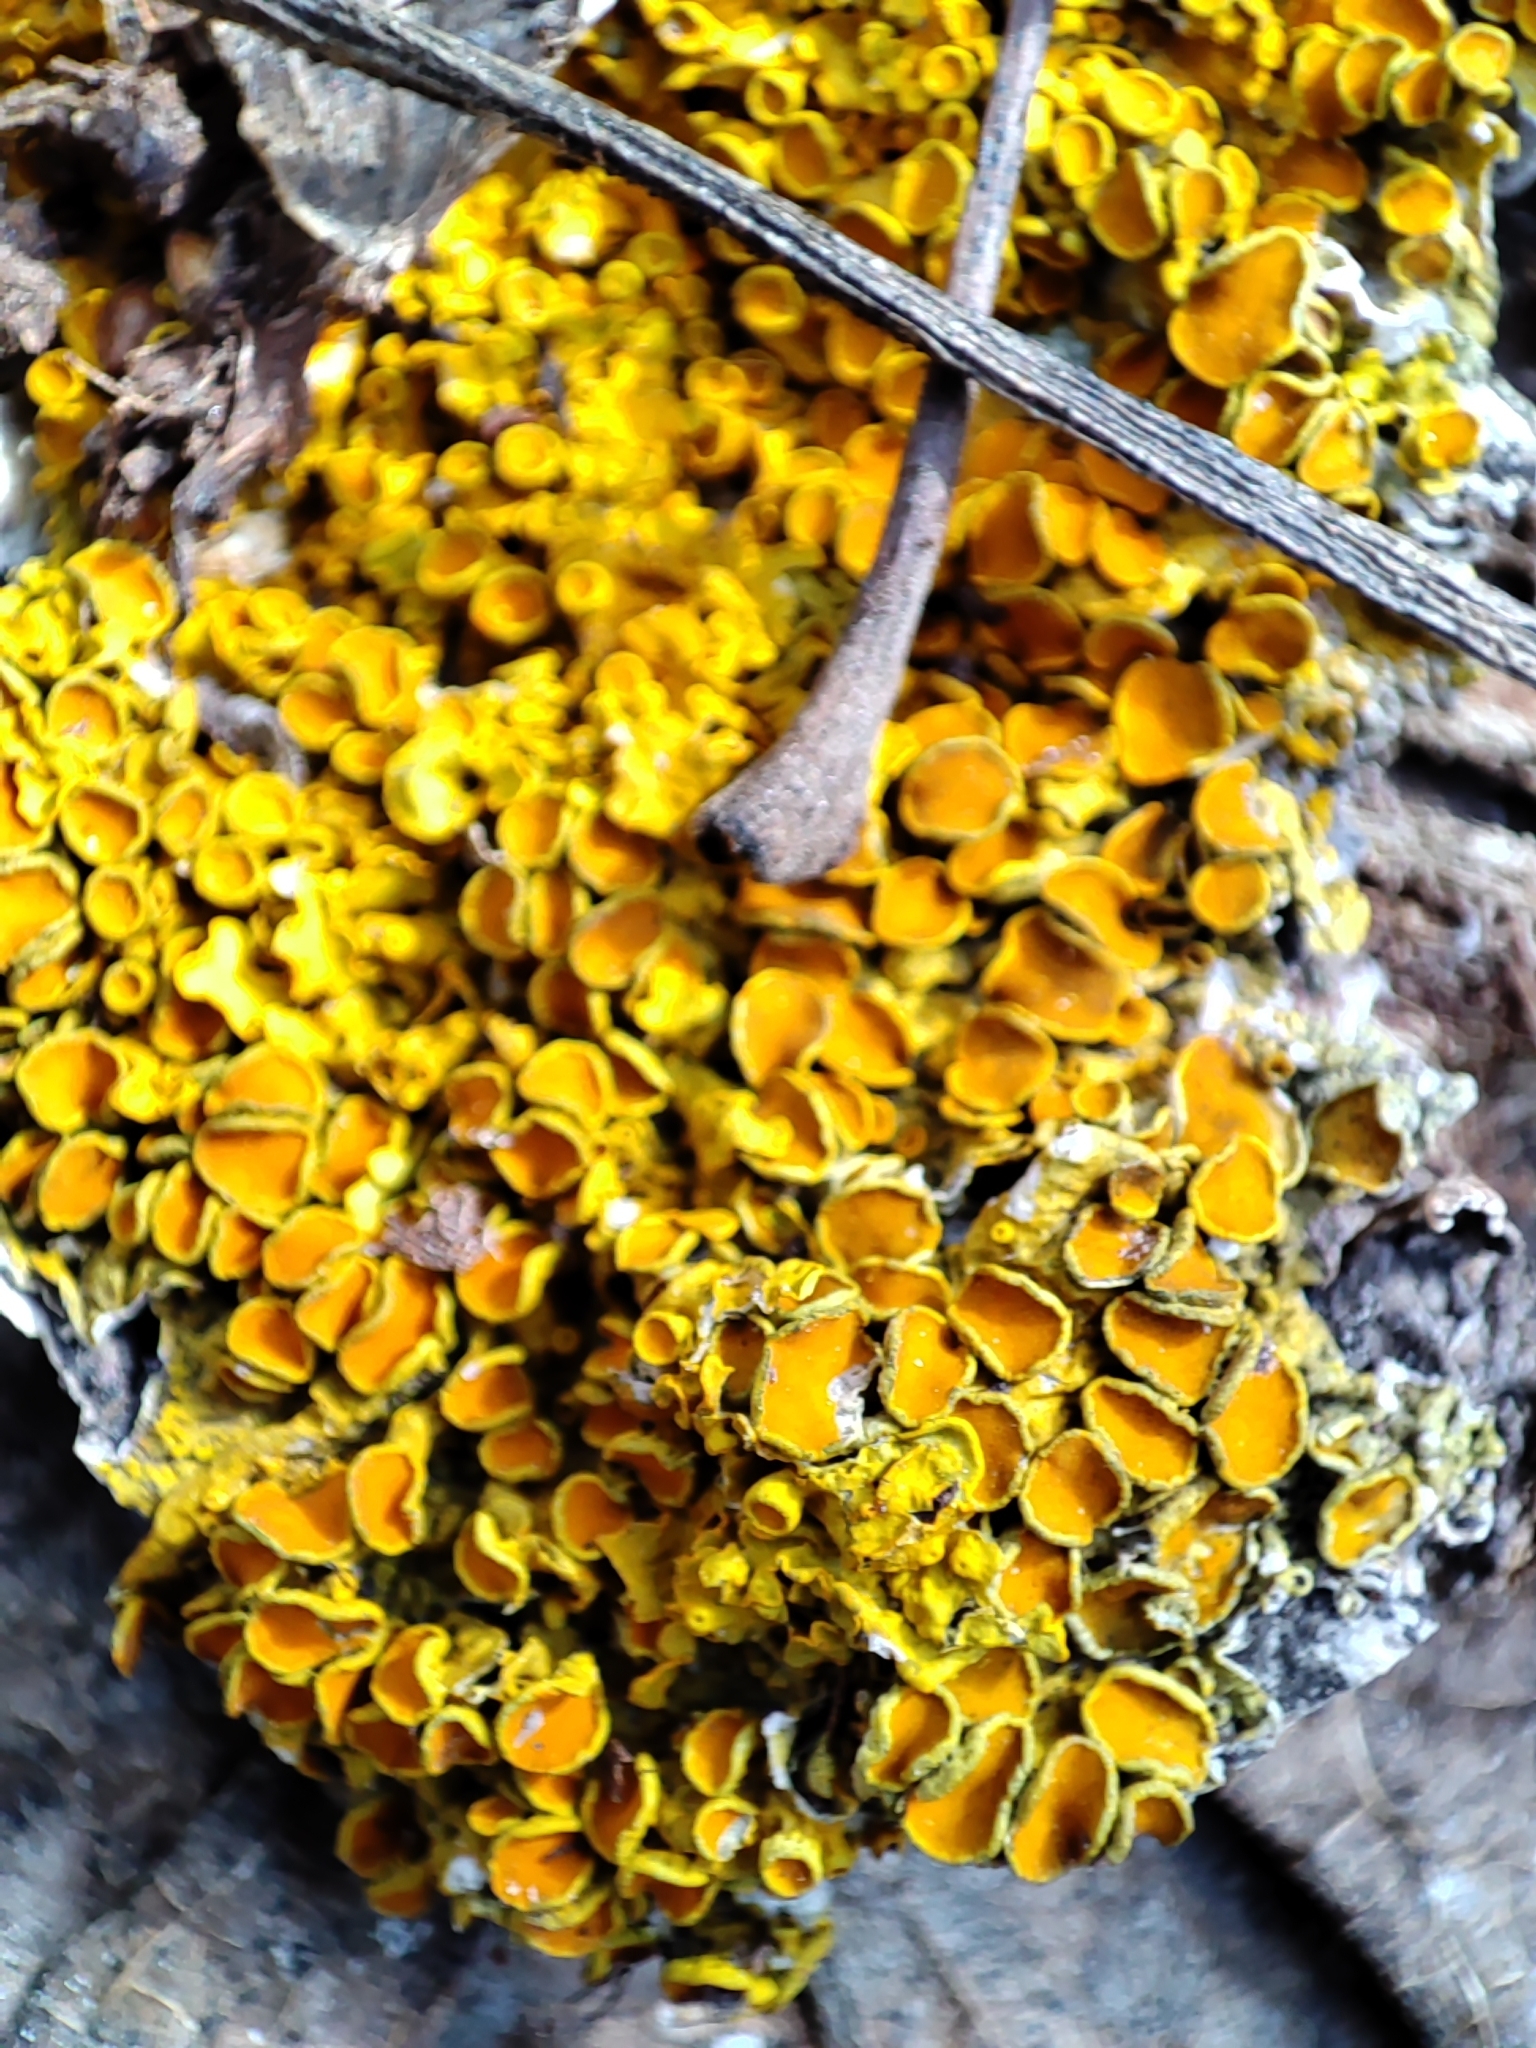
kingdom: Fungi
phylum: Ascomycota
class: Lecanoromycetes
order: Teloschistales
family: Teloschistaceae
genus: Xanthoria
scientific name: Xanthoria parietina
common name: Common orange lichen
